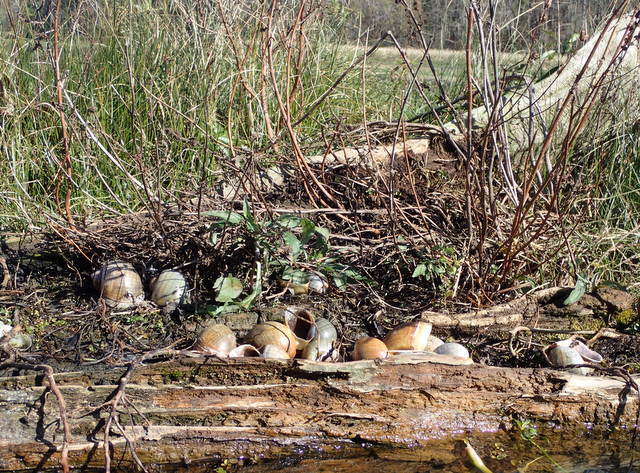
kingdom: Animalia
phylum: Mollusca
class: Gastropoda
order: Architaenioglossa
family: Ampullariidae
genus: Pomacea
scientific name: Pomacea maculata
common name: Giant applesnail
